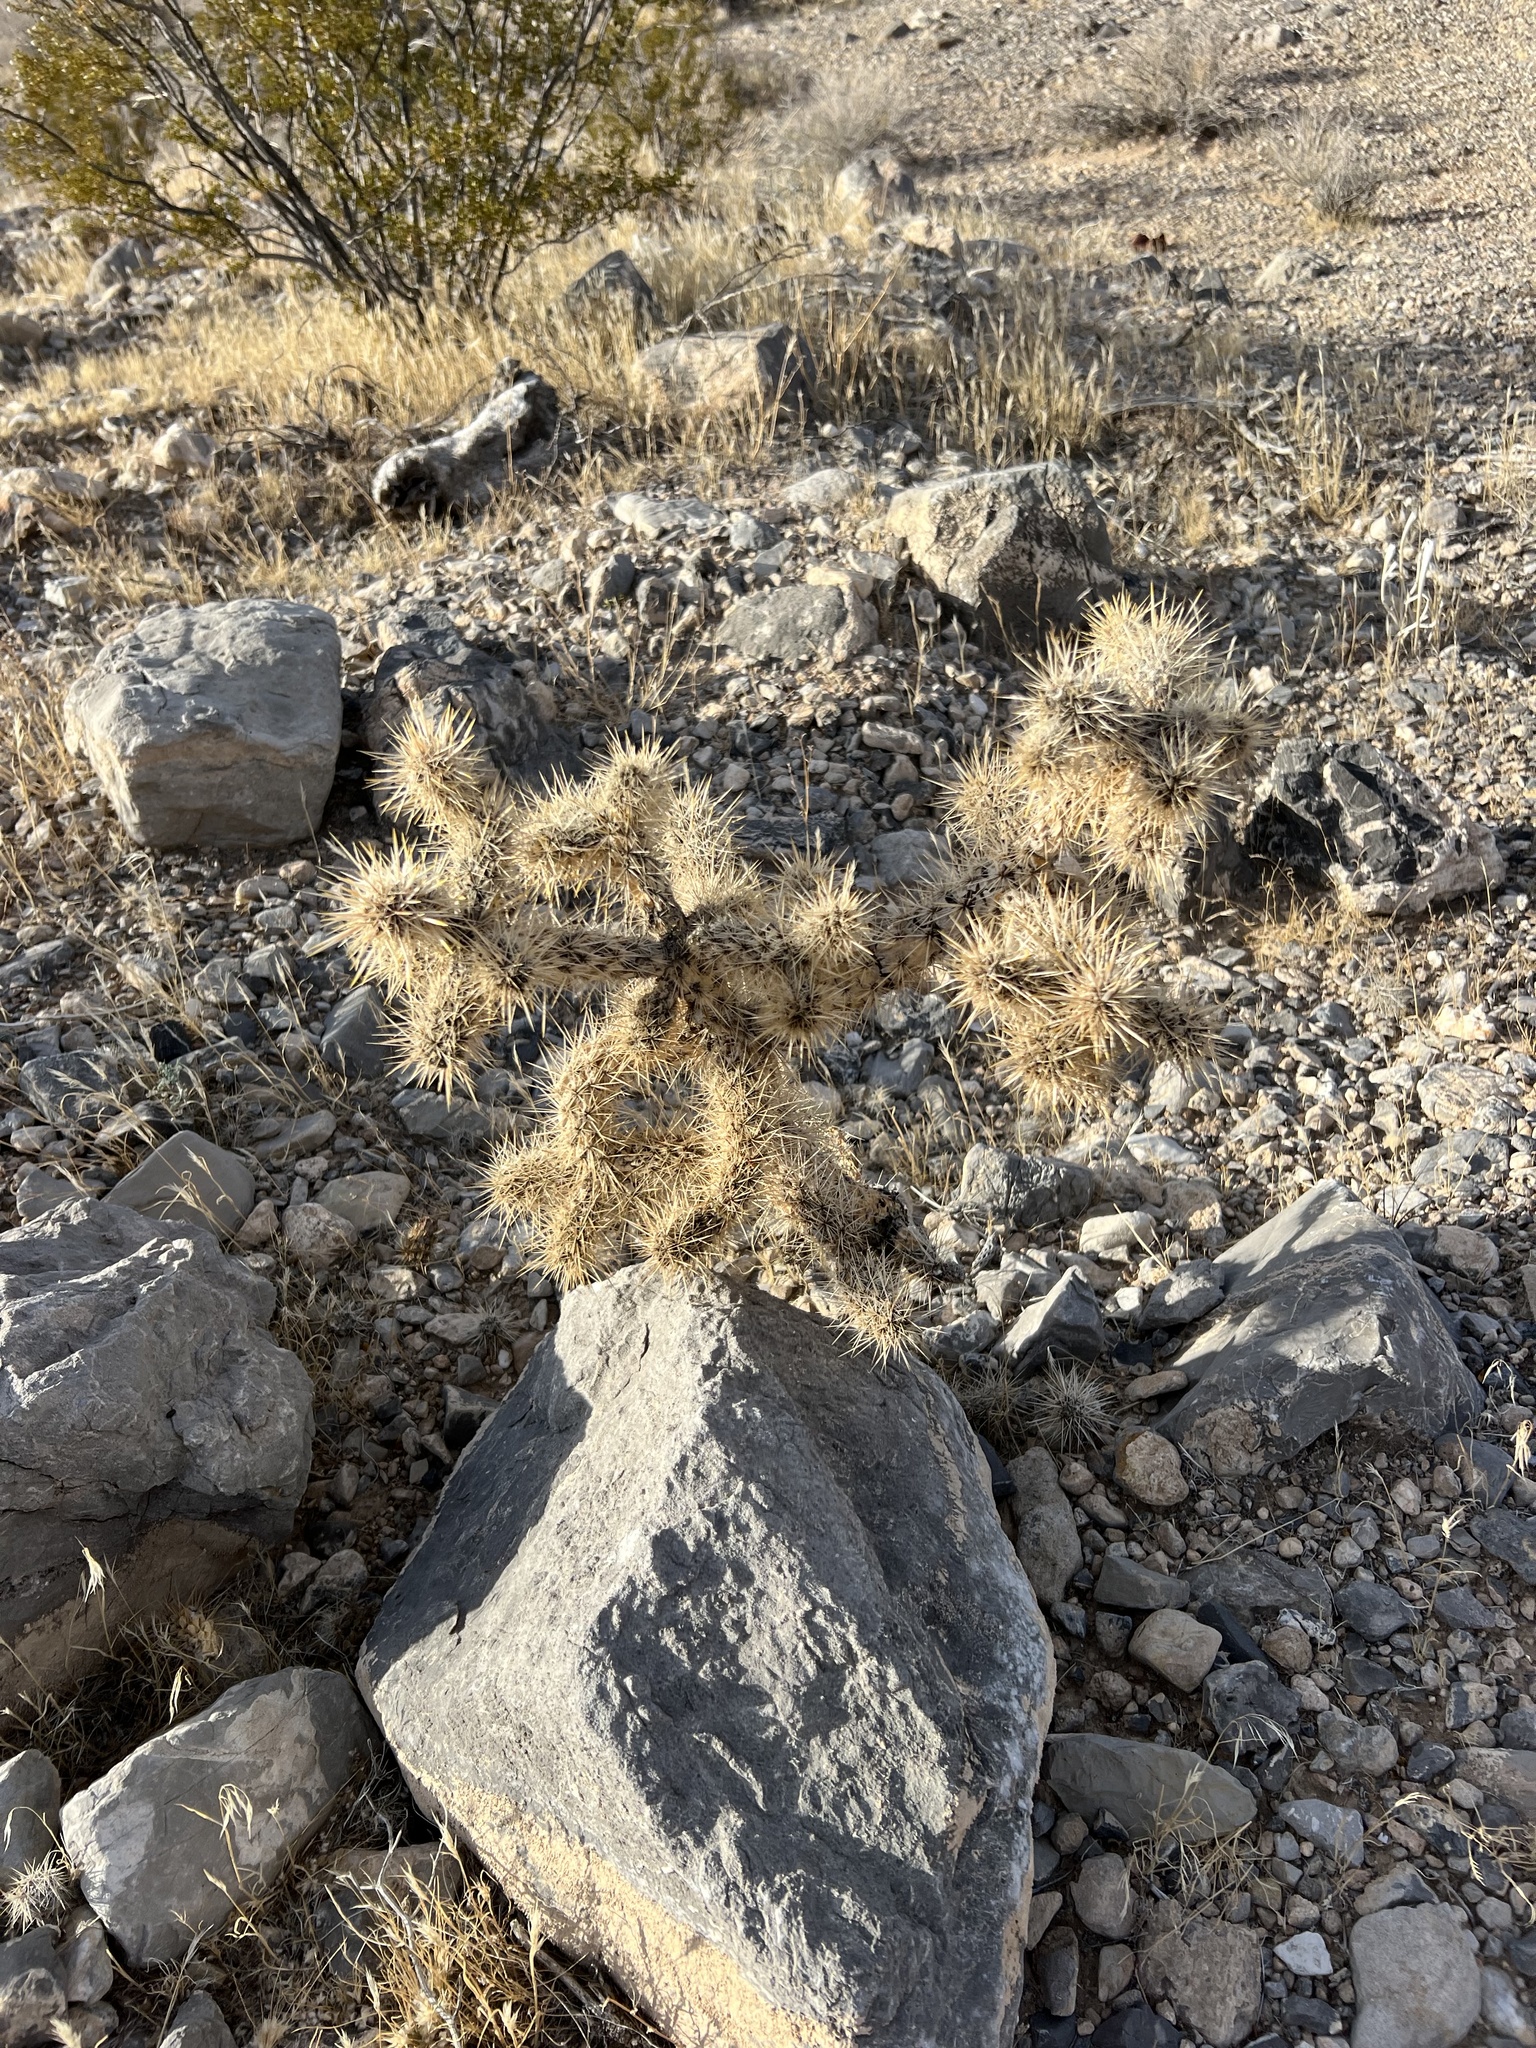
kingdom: Plantae
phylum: Tracheophyta
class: Magnoliopsida
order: Caryophyllales
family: Cactaceae
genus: Cylindropuntia
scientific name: Cylindropuntia echinocarpa
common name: Ground cholla
